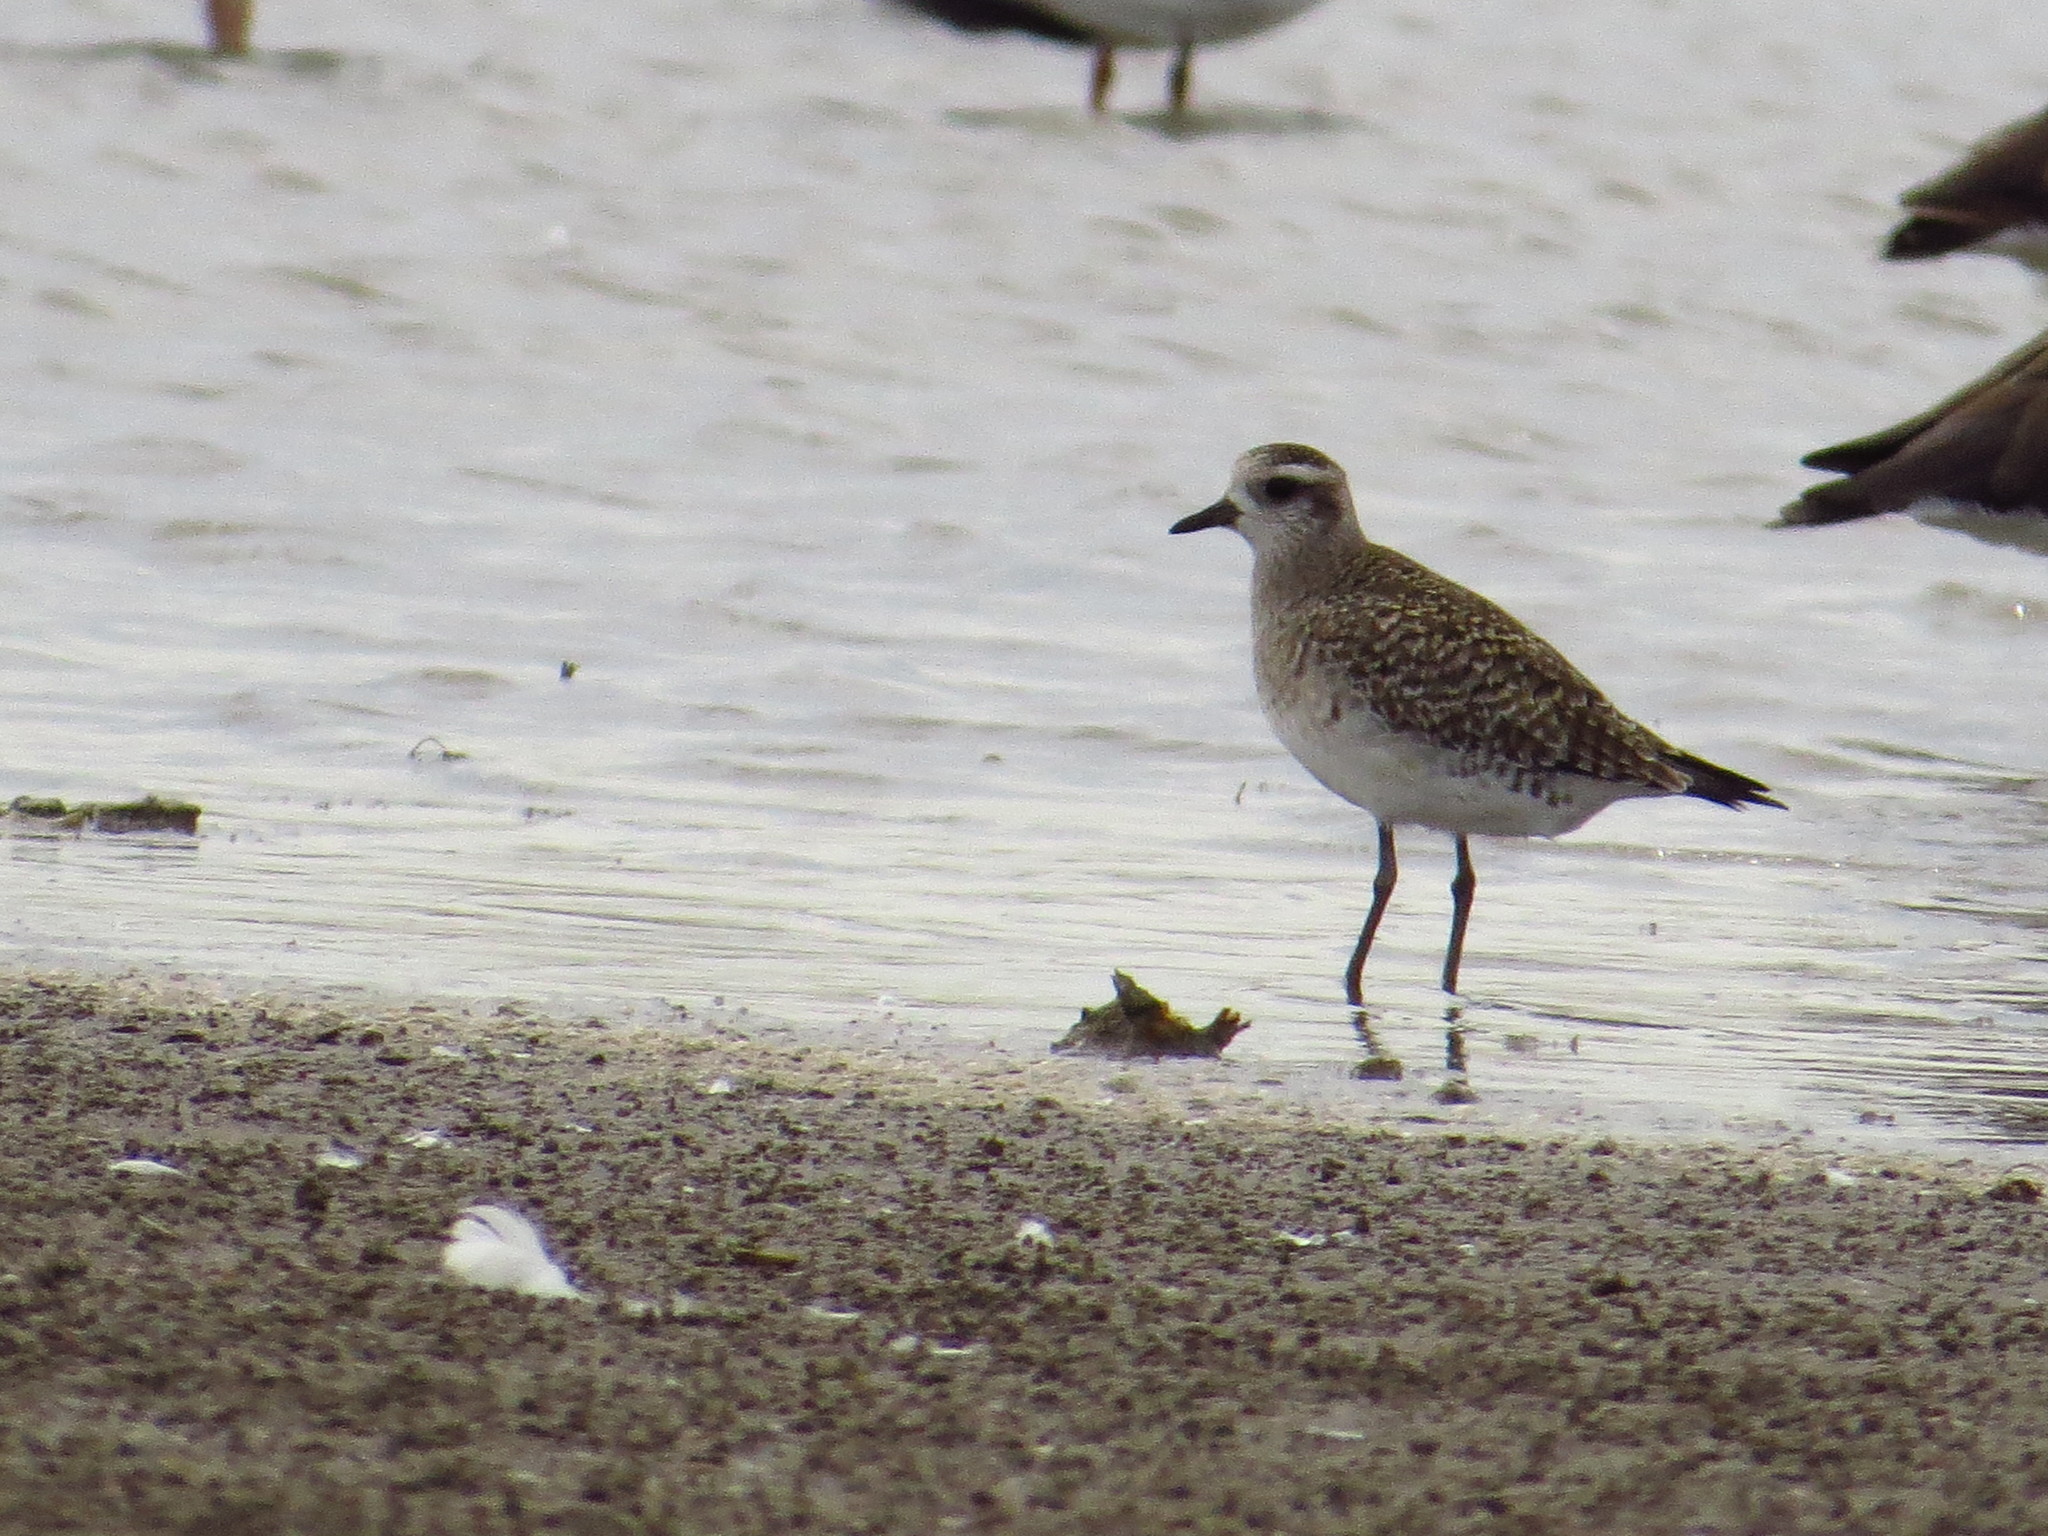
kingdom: Animalia
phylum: Chordata
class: Aves
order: Charadriiformes
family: Charadriidae
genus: Pluvialis
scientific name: Pluvialis dominica
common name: American golden plover
